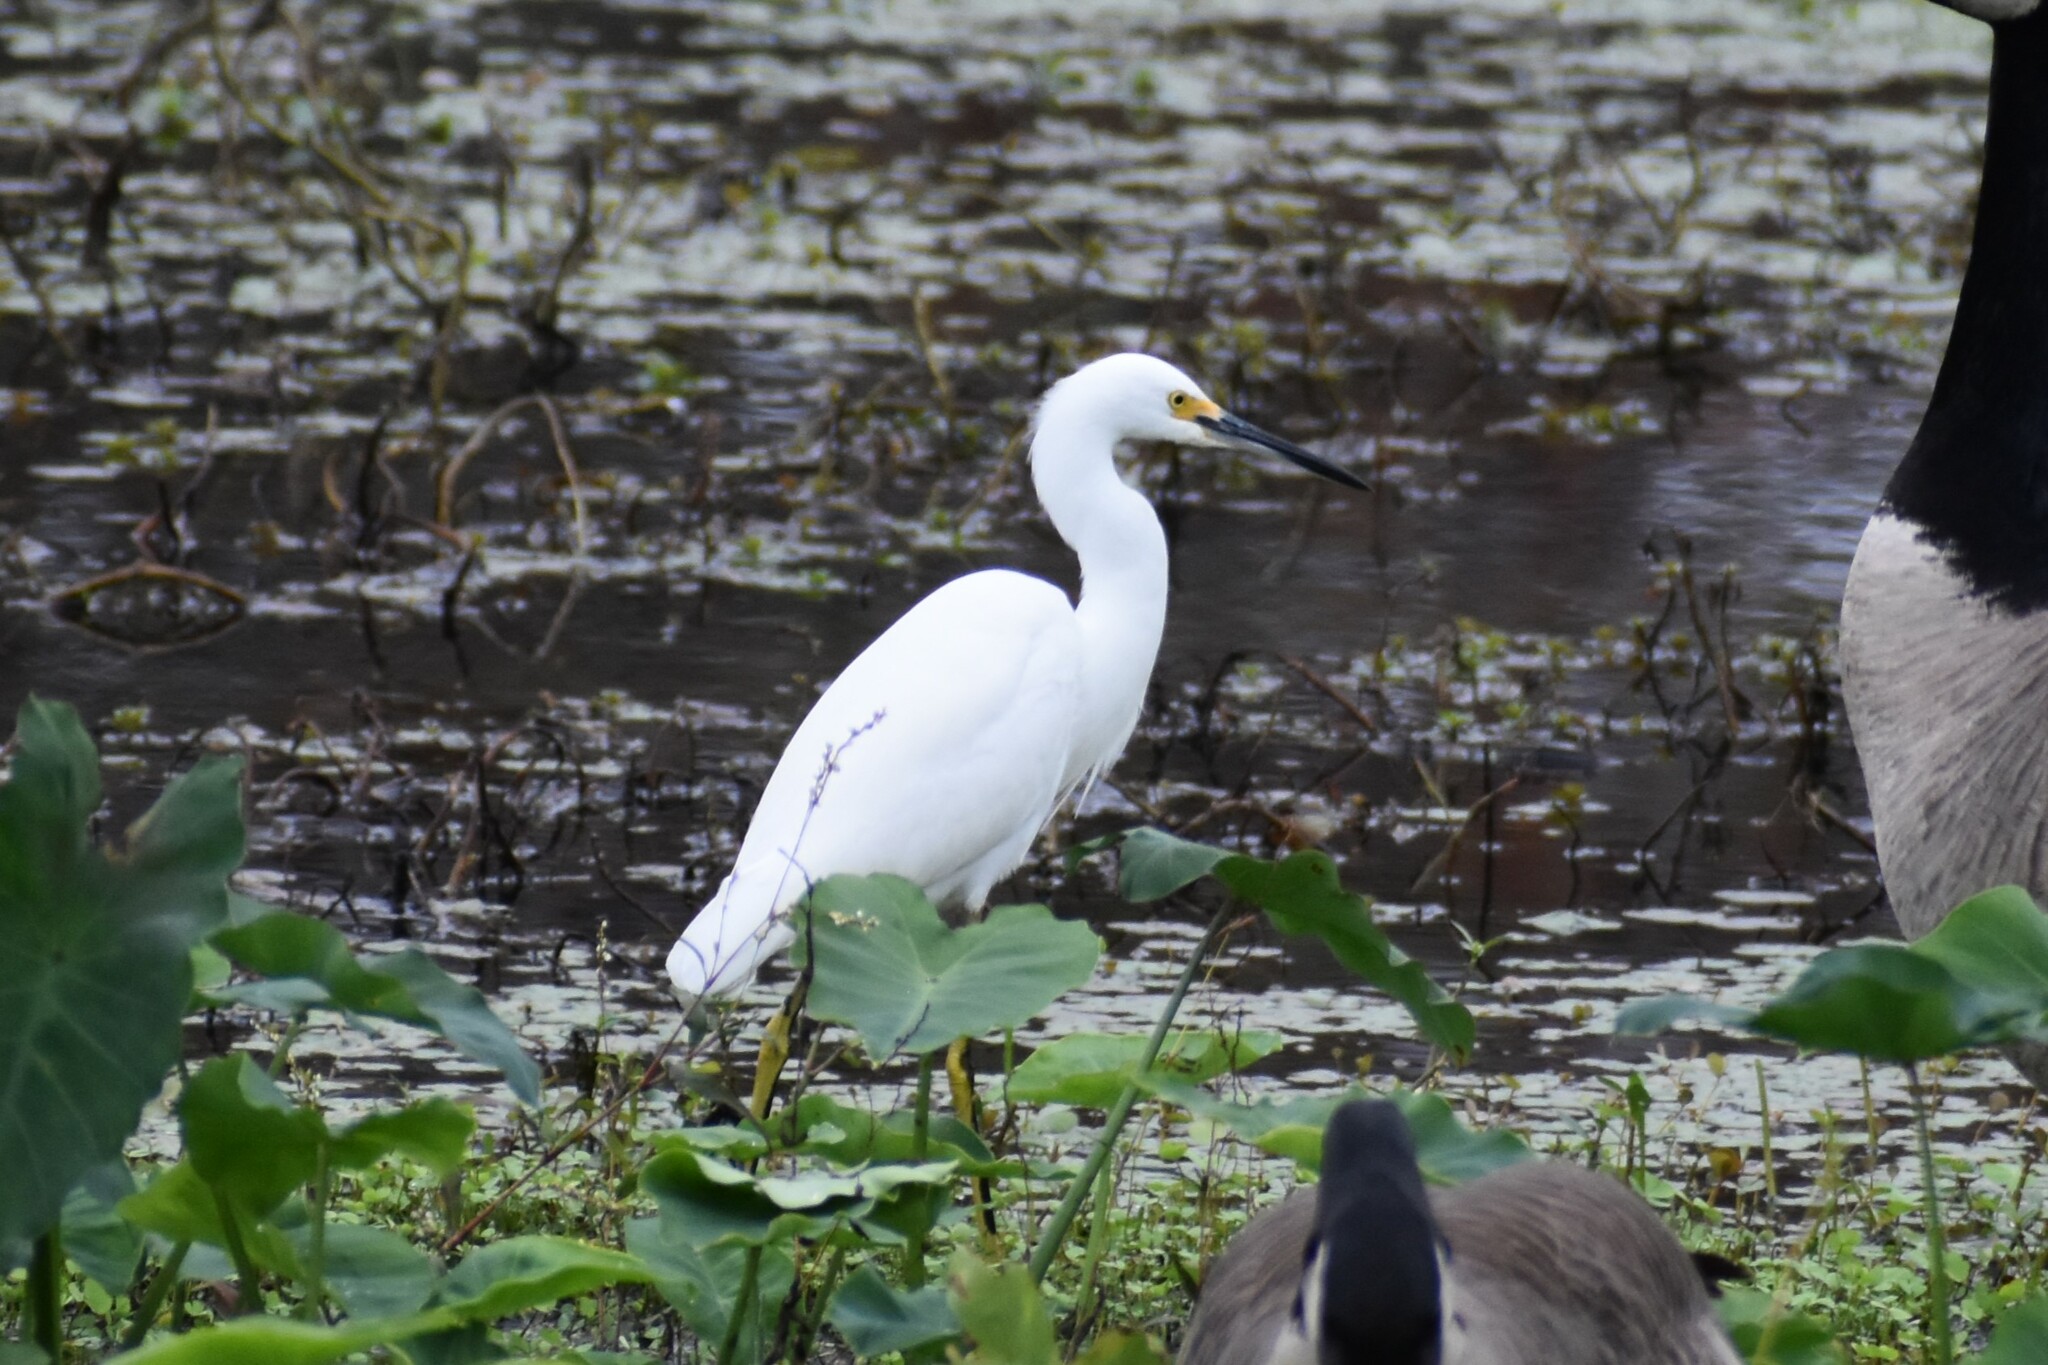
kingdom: Animalia
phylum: Chordata
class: Aves
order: Pelecaniformes
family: Ardeidae
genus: Egretta
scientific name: Egretta thula
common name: Snowy egret
